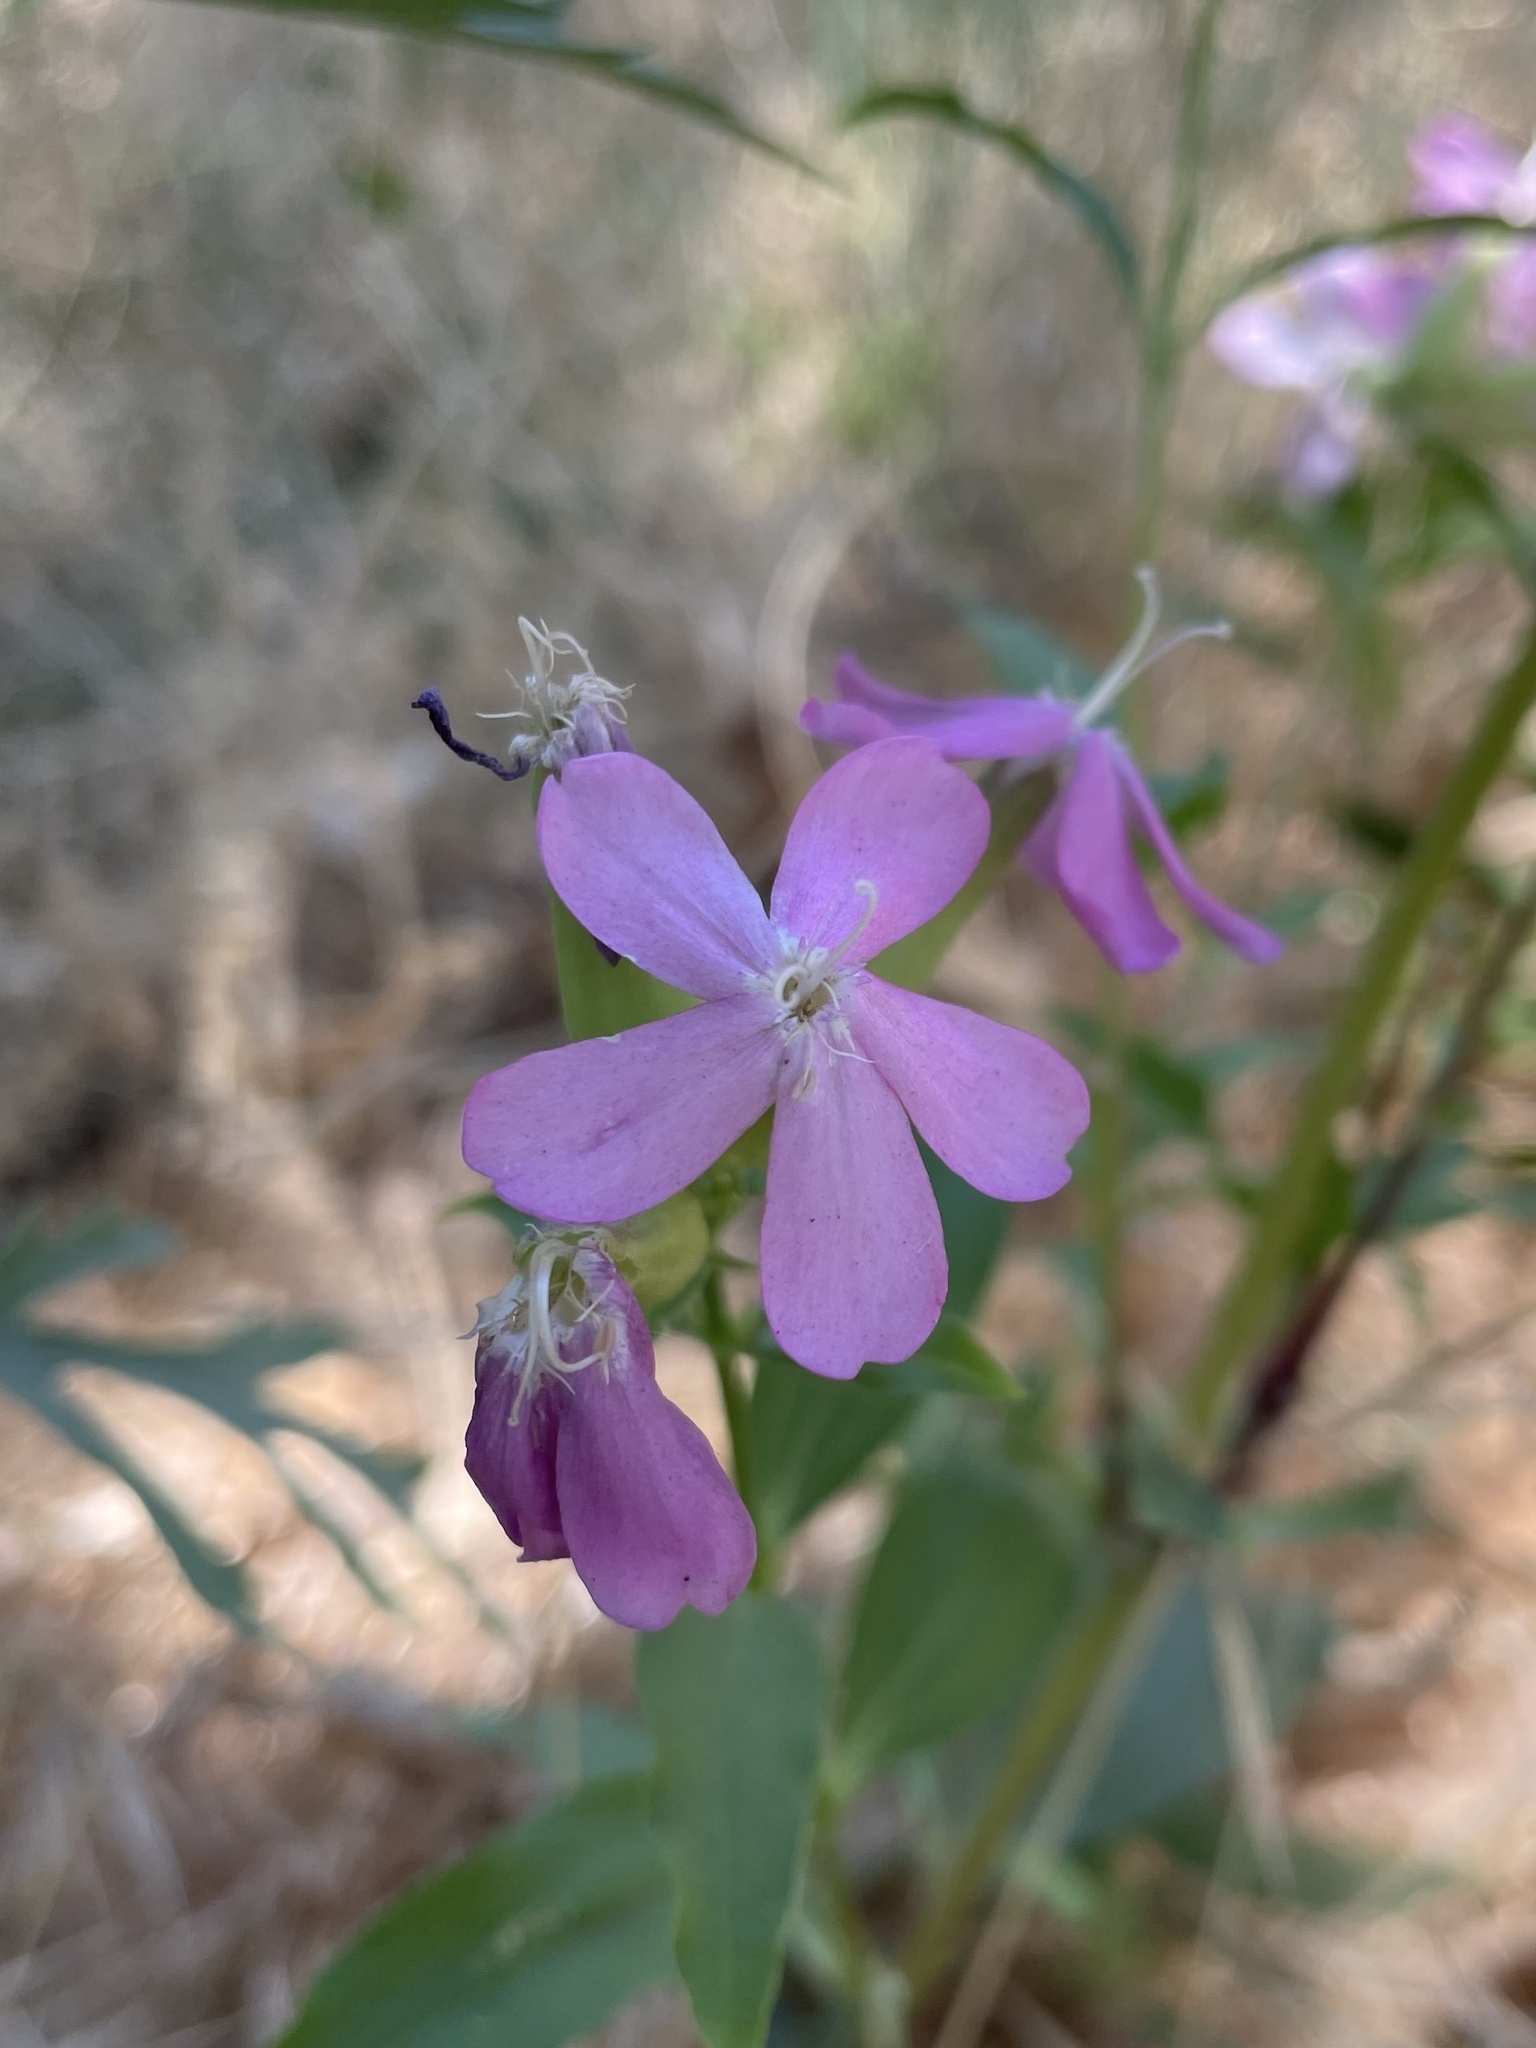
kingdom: Plantae
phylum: Tracheophyta
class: Magnoliopsida
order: Caryophyllales
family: Caryophyllaceae
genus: Saponaria
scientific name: Saponaria officinalis
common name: Soapwort
